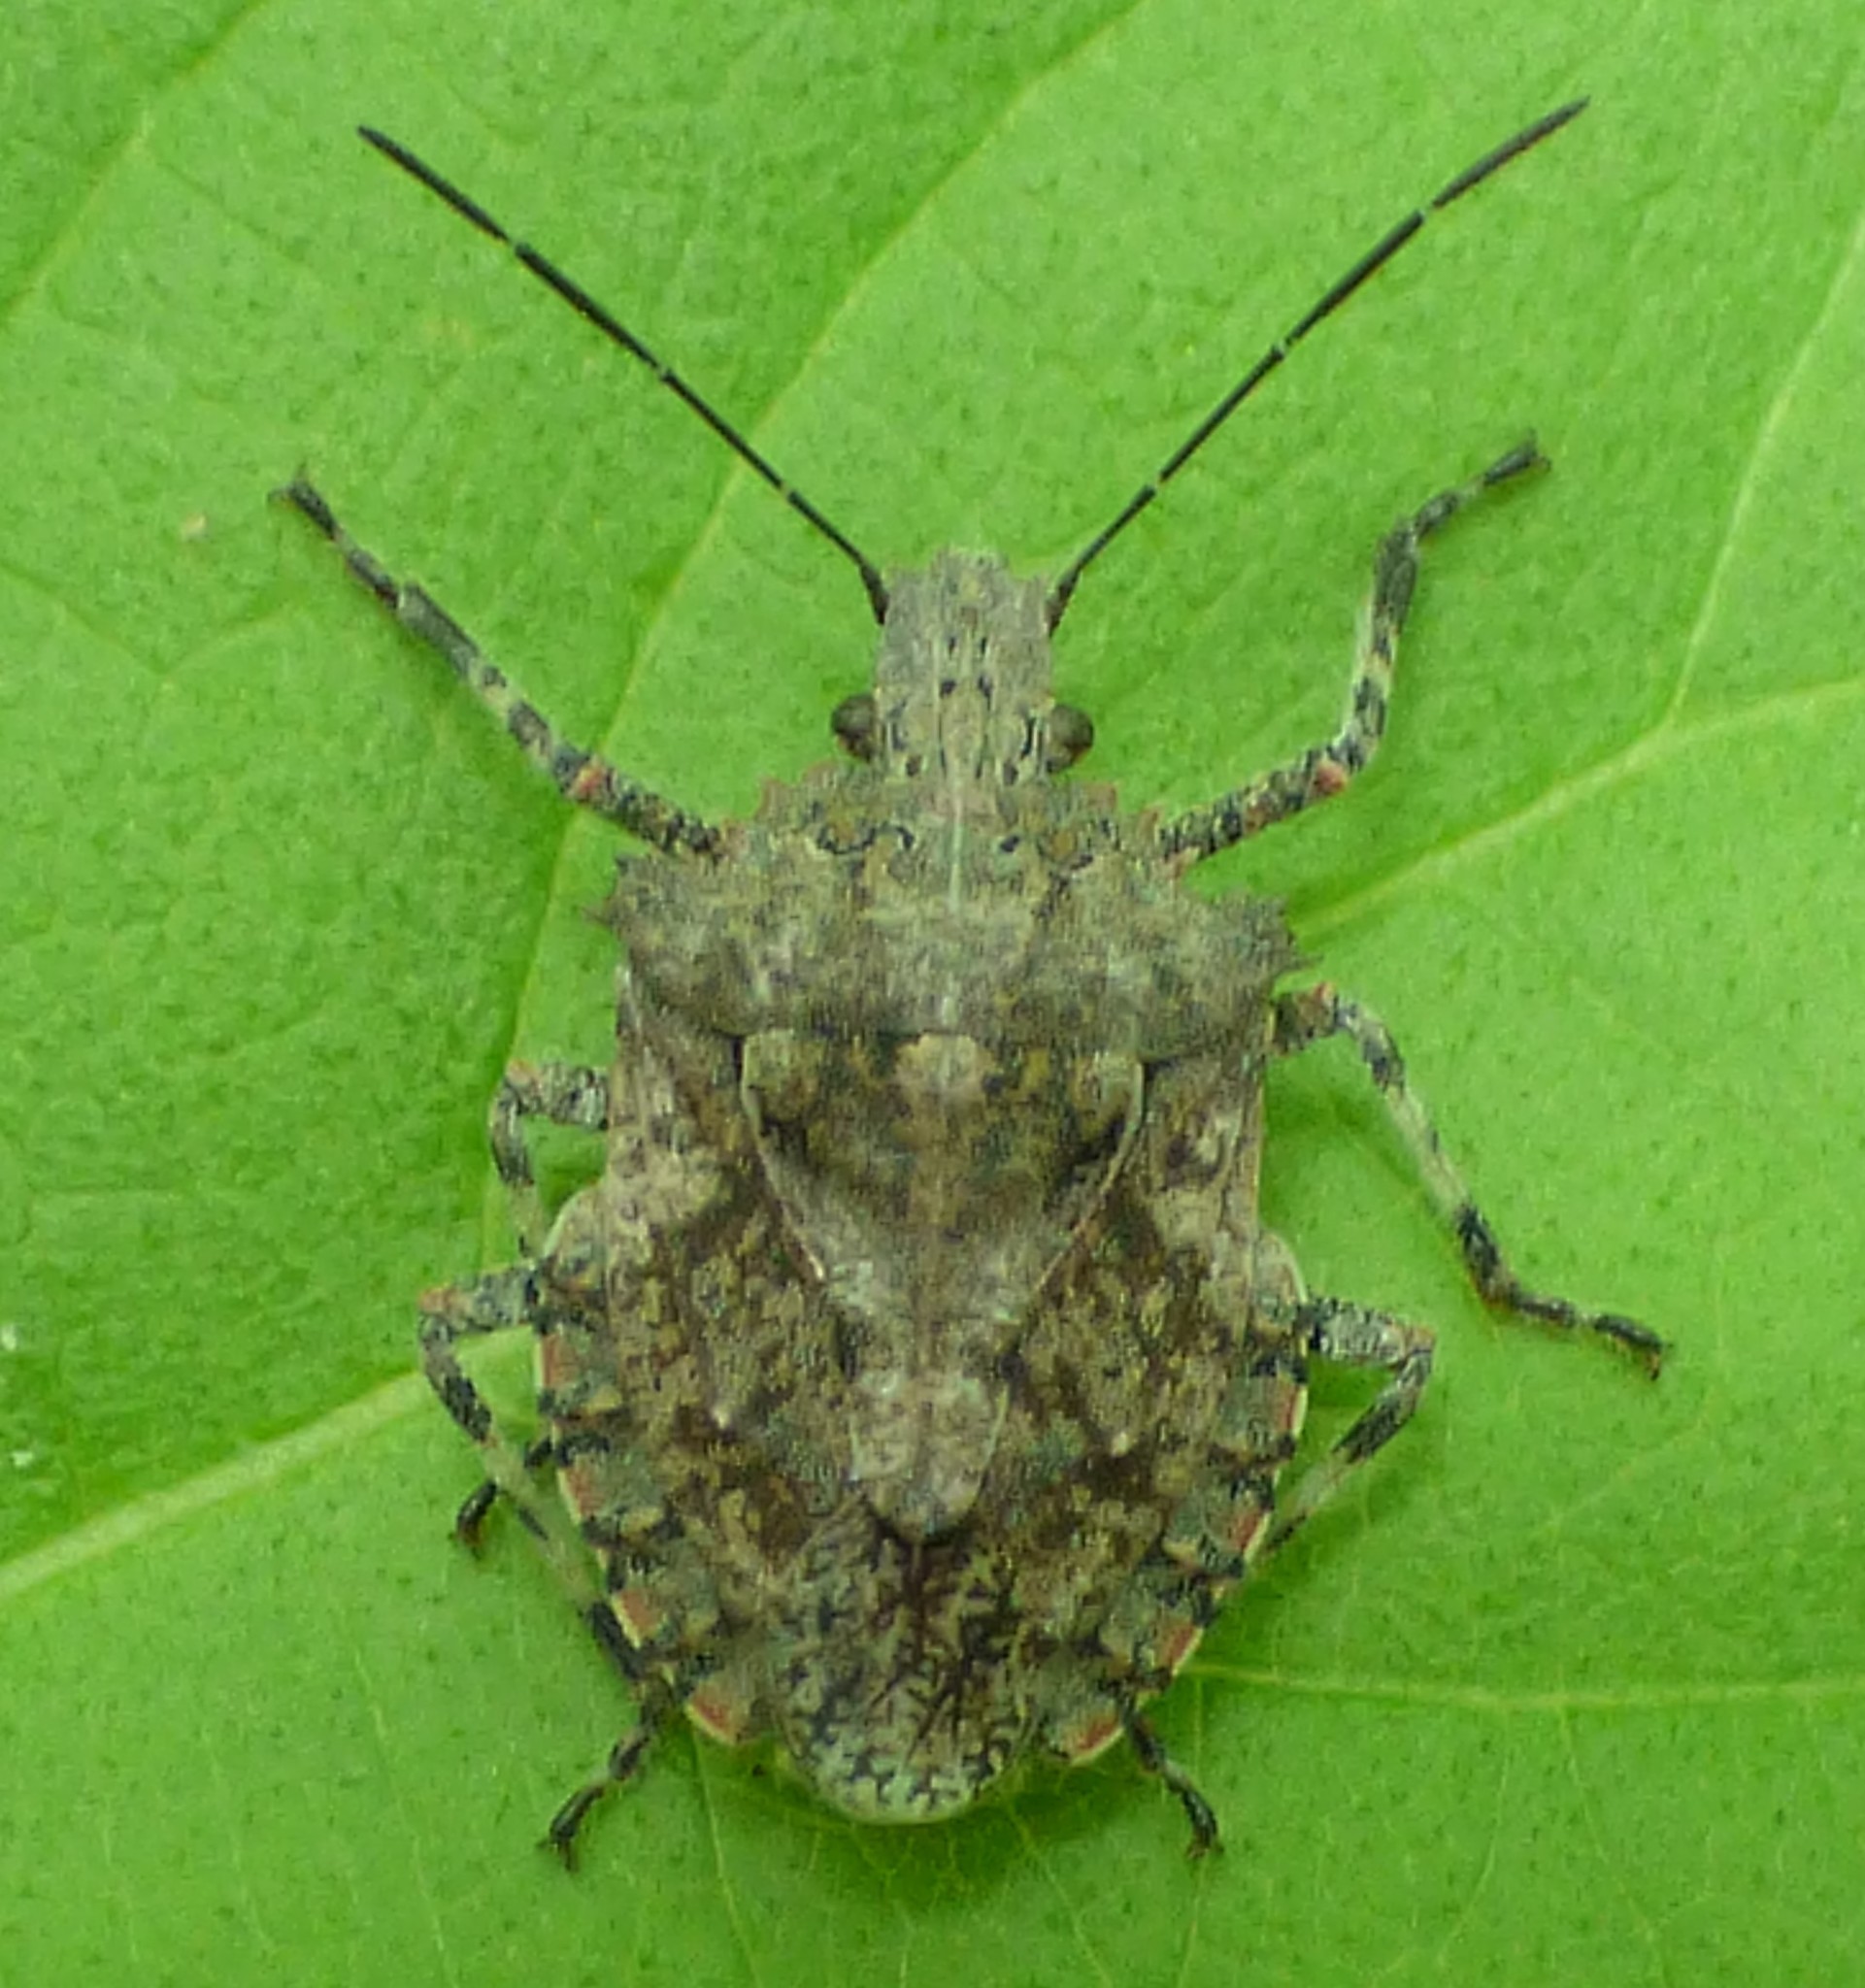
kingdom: Animalia
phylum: Arthropoda
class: Insecta
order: Hemiptera
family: Pentatomidae
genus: Brochymena
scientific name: Brochymena arborea
